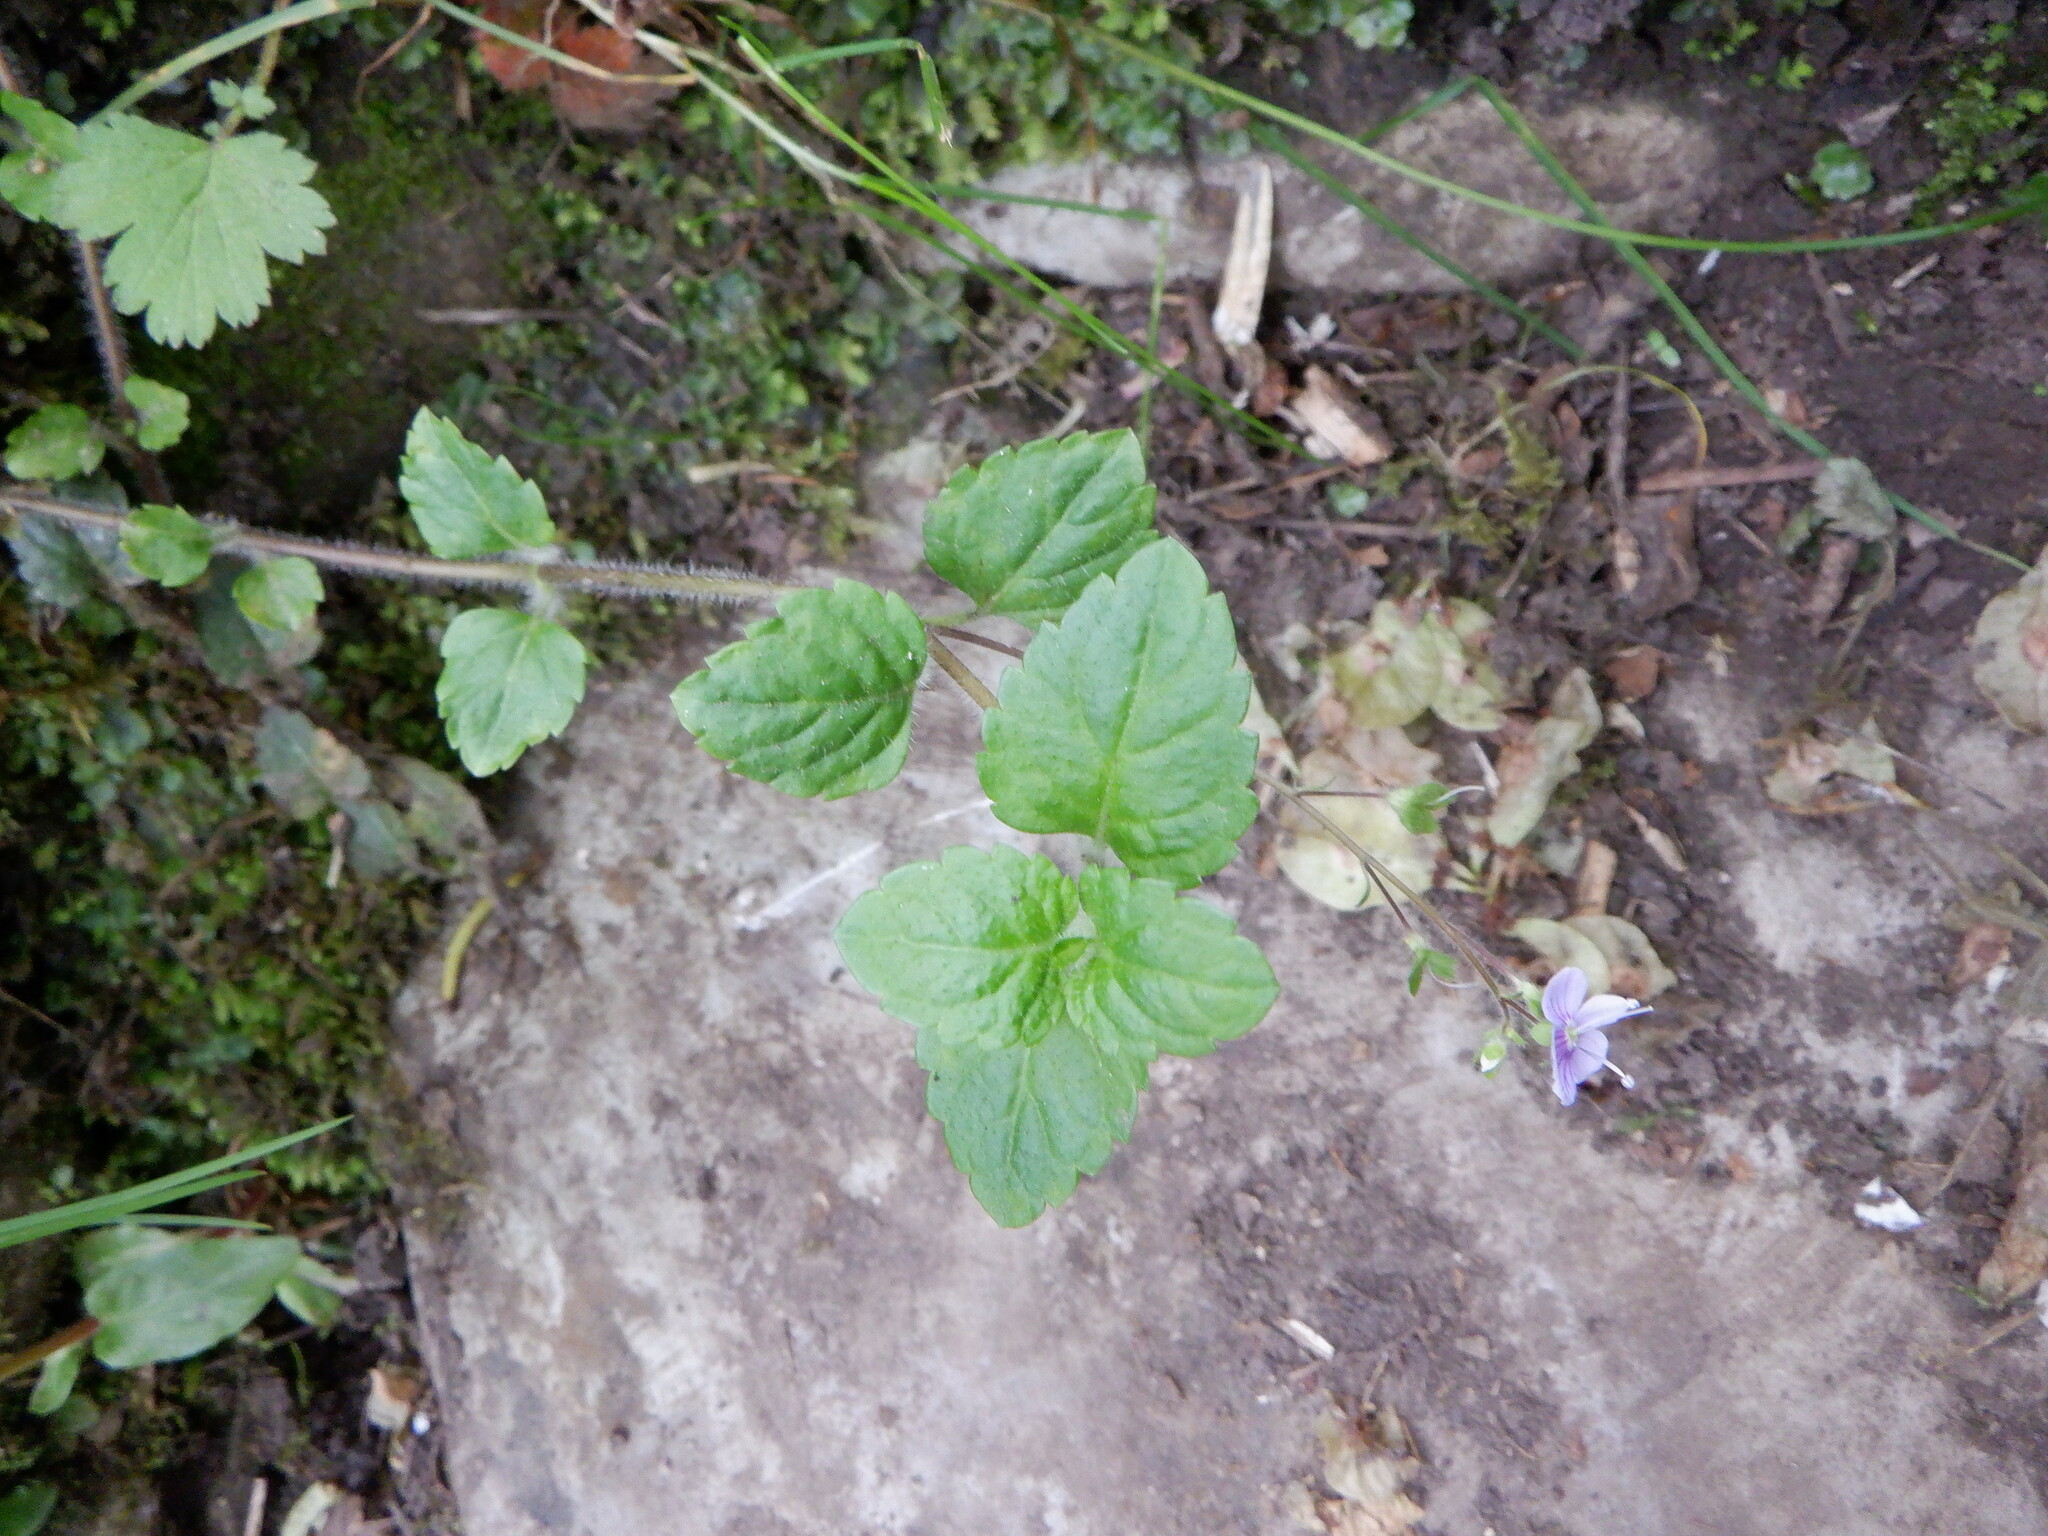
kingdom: Plantae
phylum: Tracheophyta
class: Magnoliopsida
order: Lamiales
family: Plantaginaceae
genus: Veronica
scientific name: Veronica montana
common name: Wood speedwell
